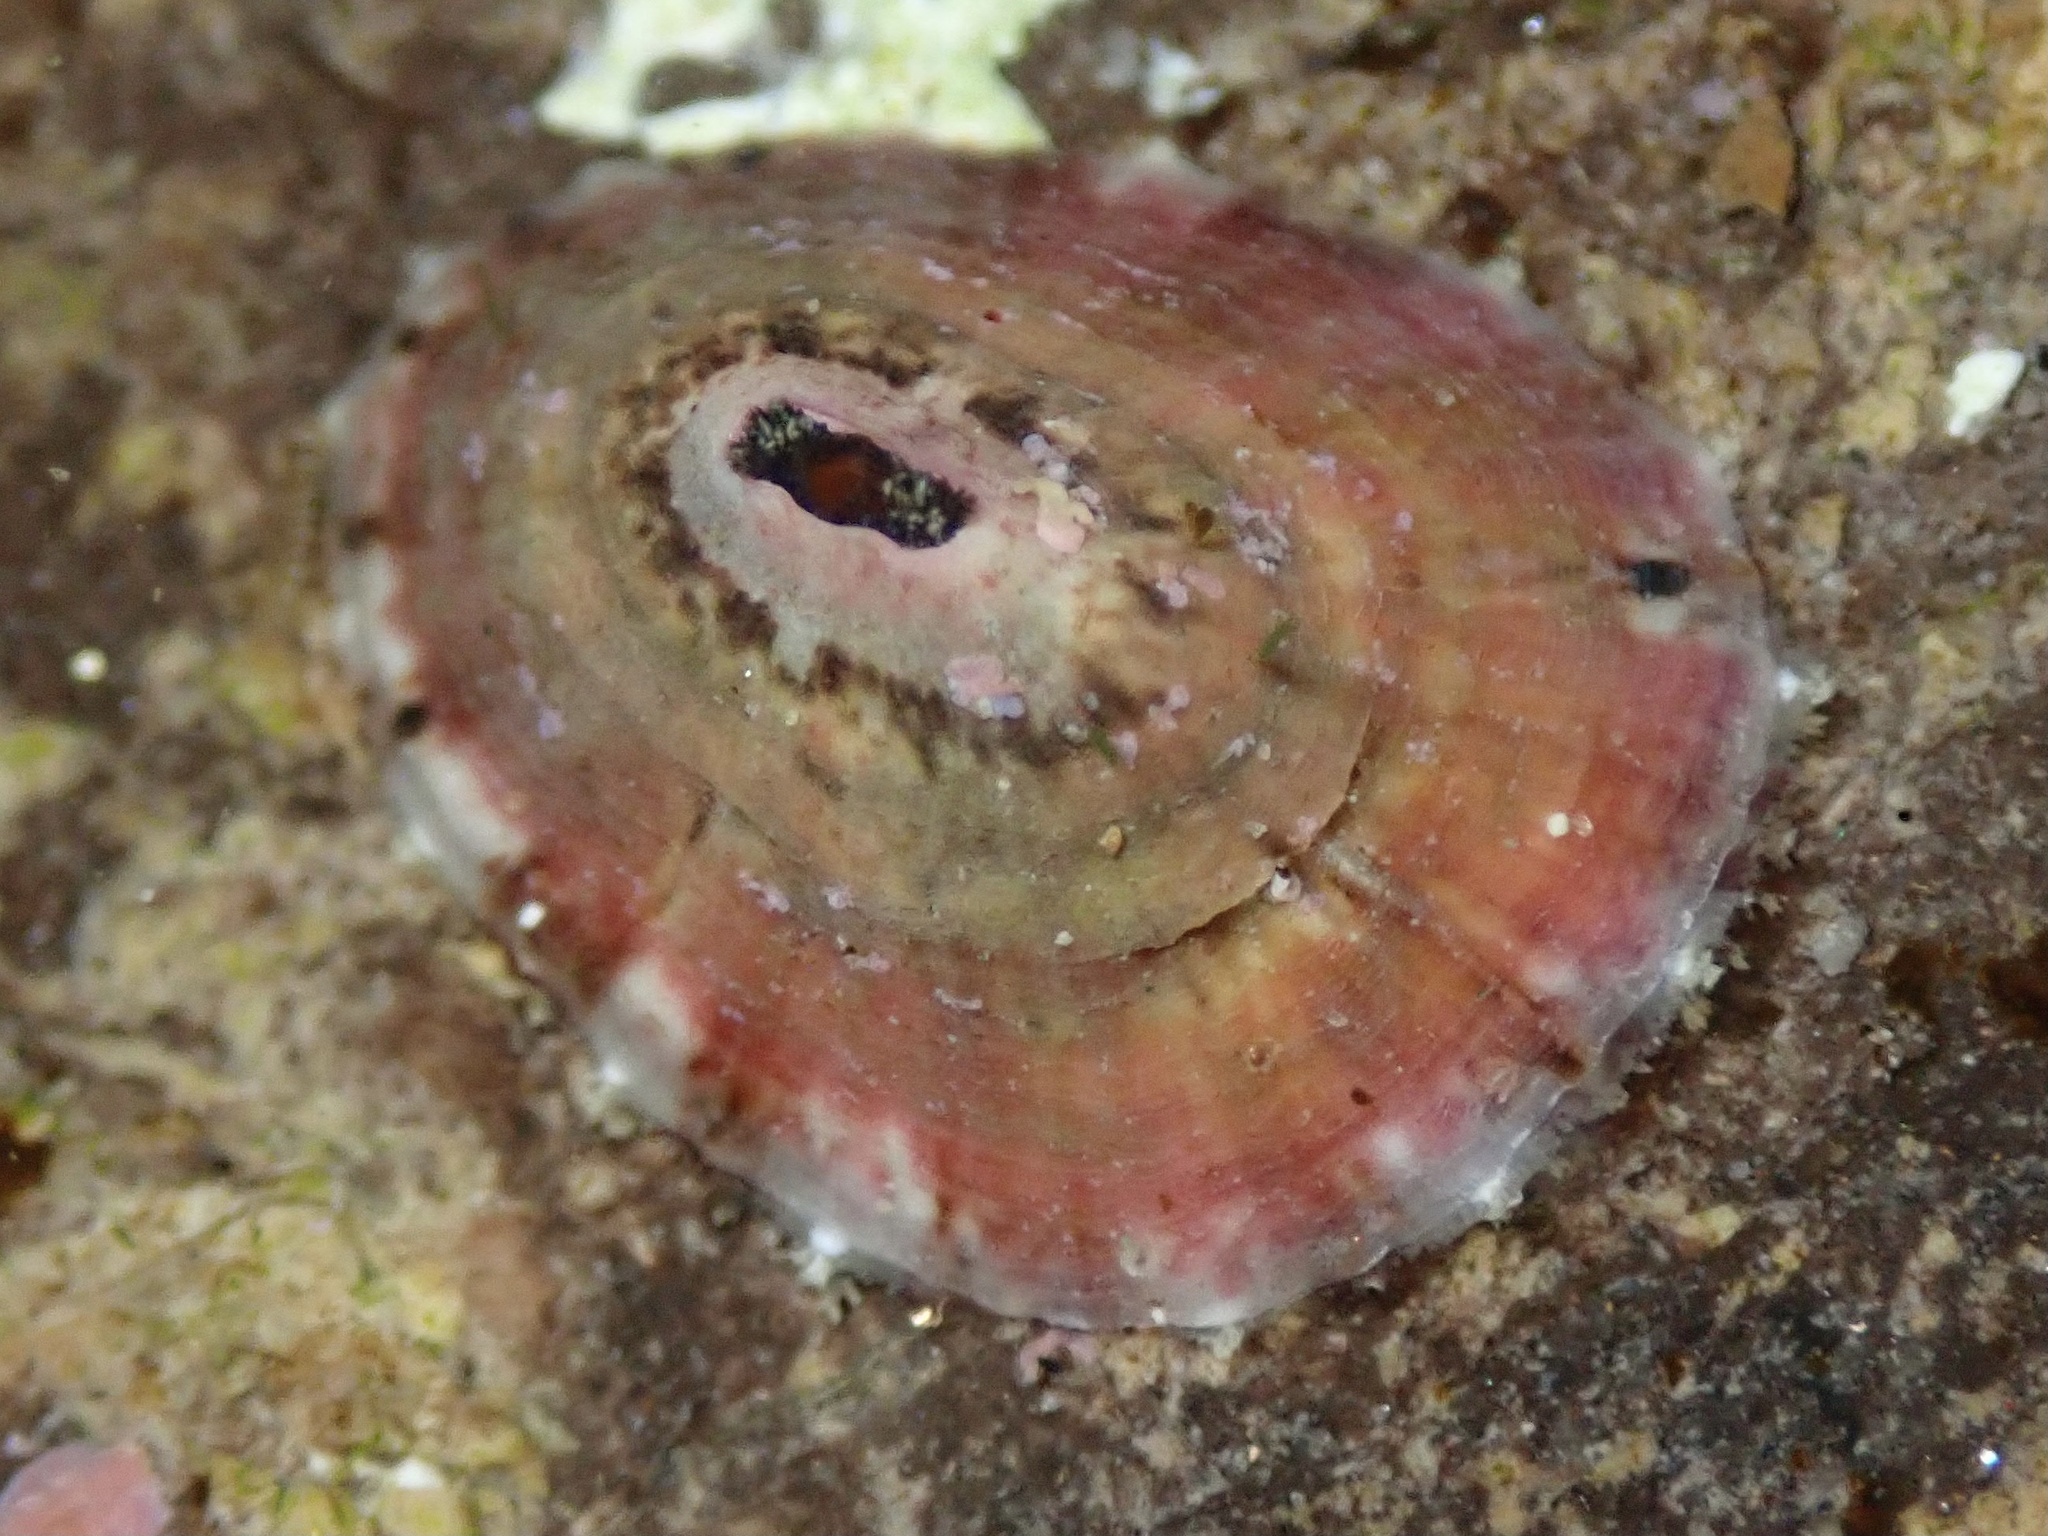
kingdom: Animalia
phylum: Mollusca
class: Gastropoda
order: Lepetellida
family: Fissurellidae
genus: Fissurella
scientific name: Fissurella volcano
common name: Volcano keyhole limpet
